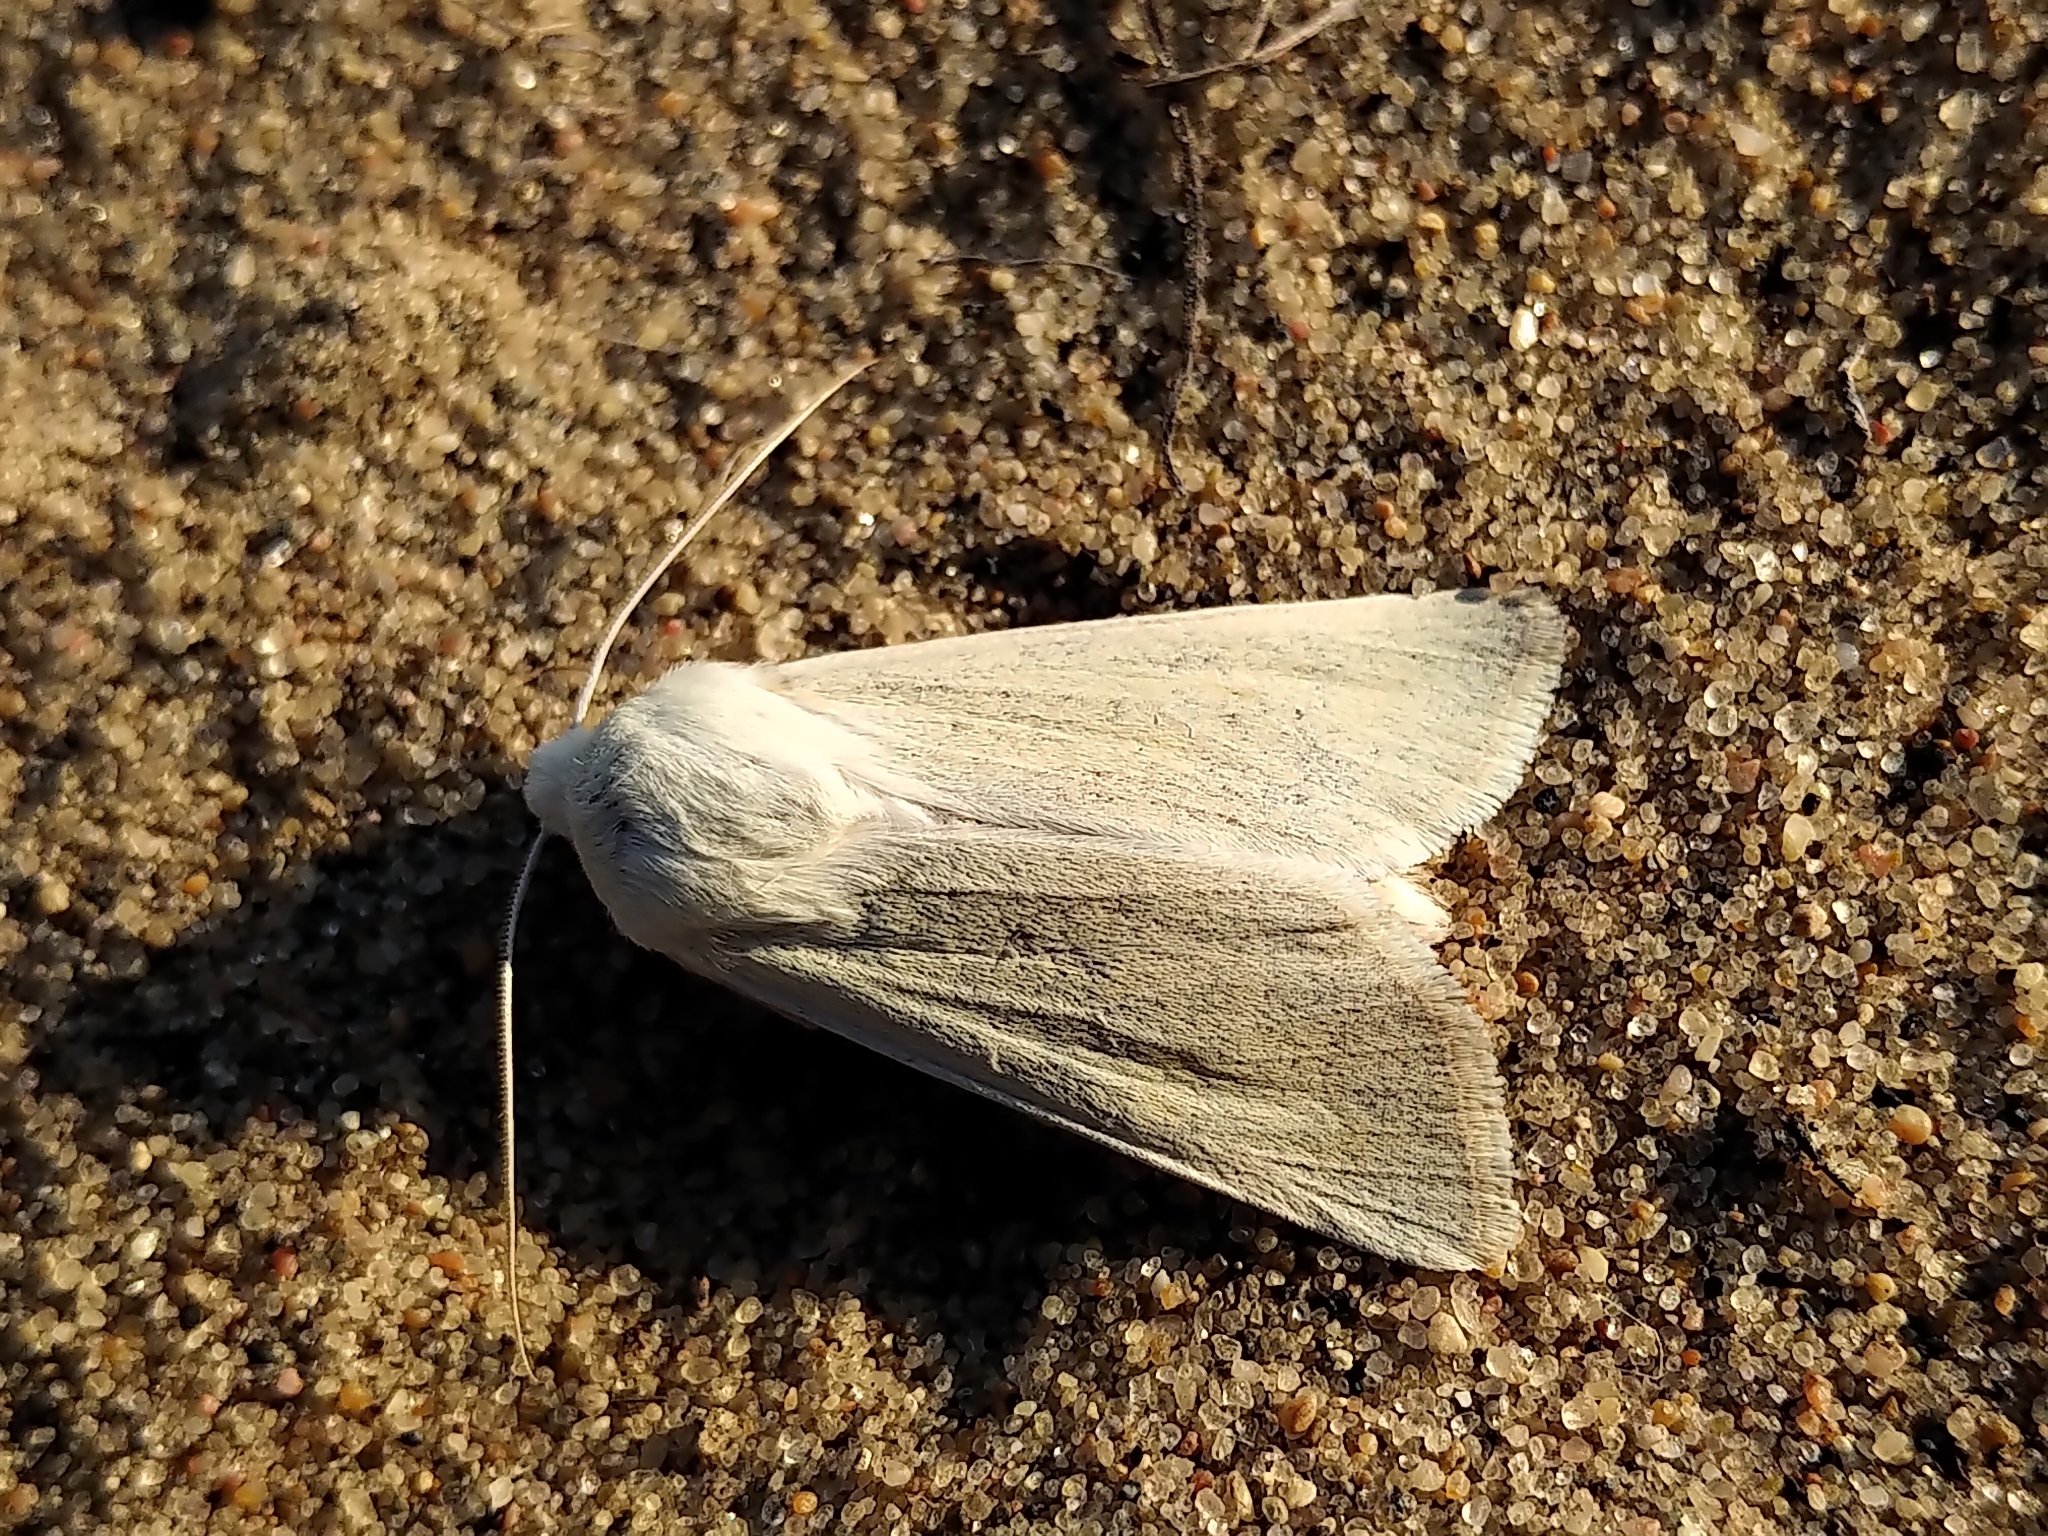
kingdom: Animalia
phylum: Arthropoda
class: Insecta
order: Lepidoptera
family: Noctuidae
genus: Copablepharon
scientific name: Copablepharon viridisparsa
